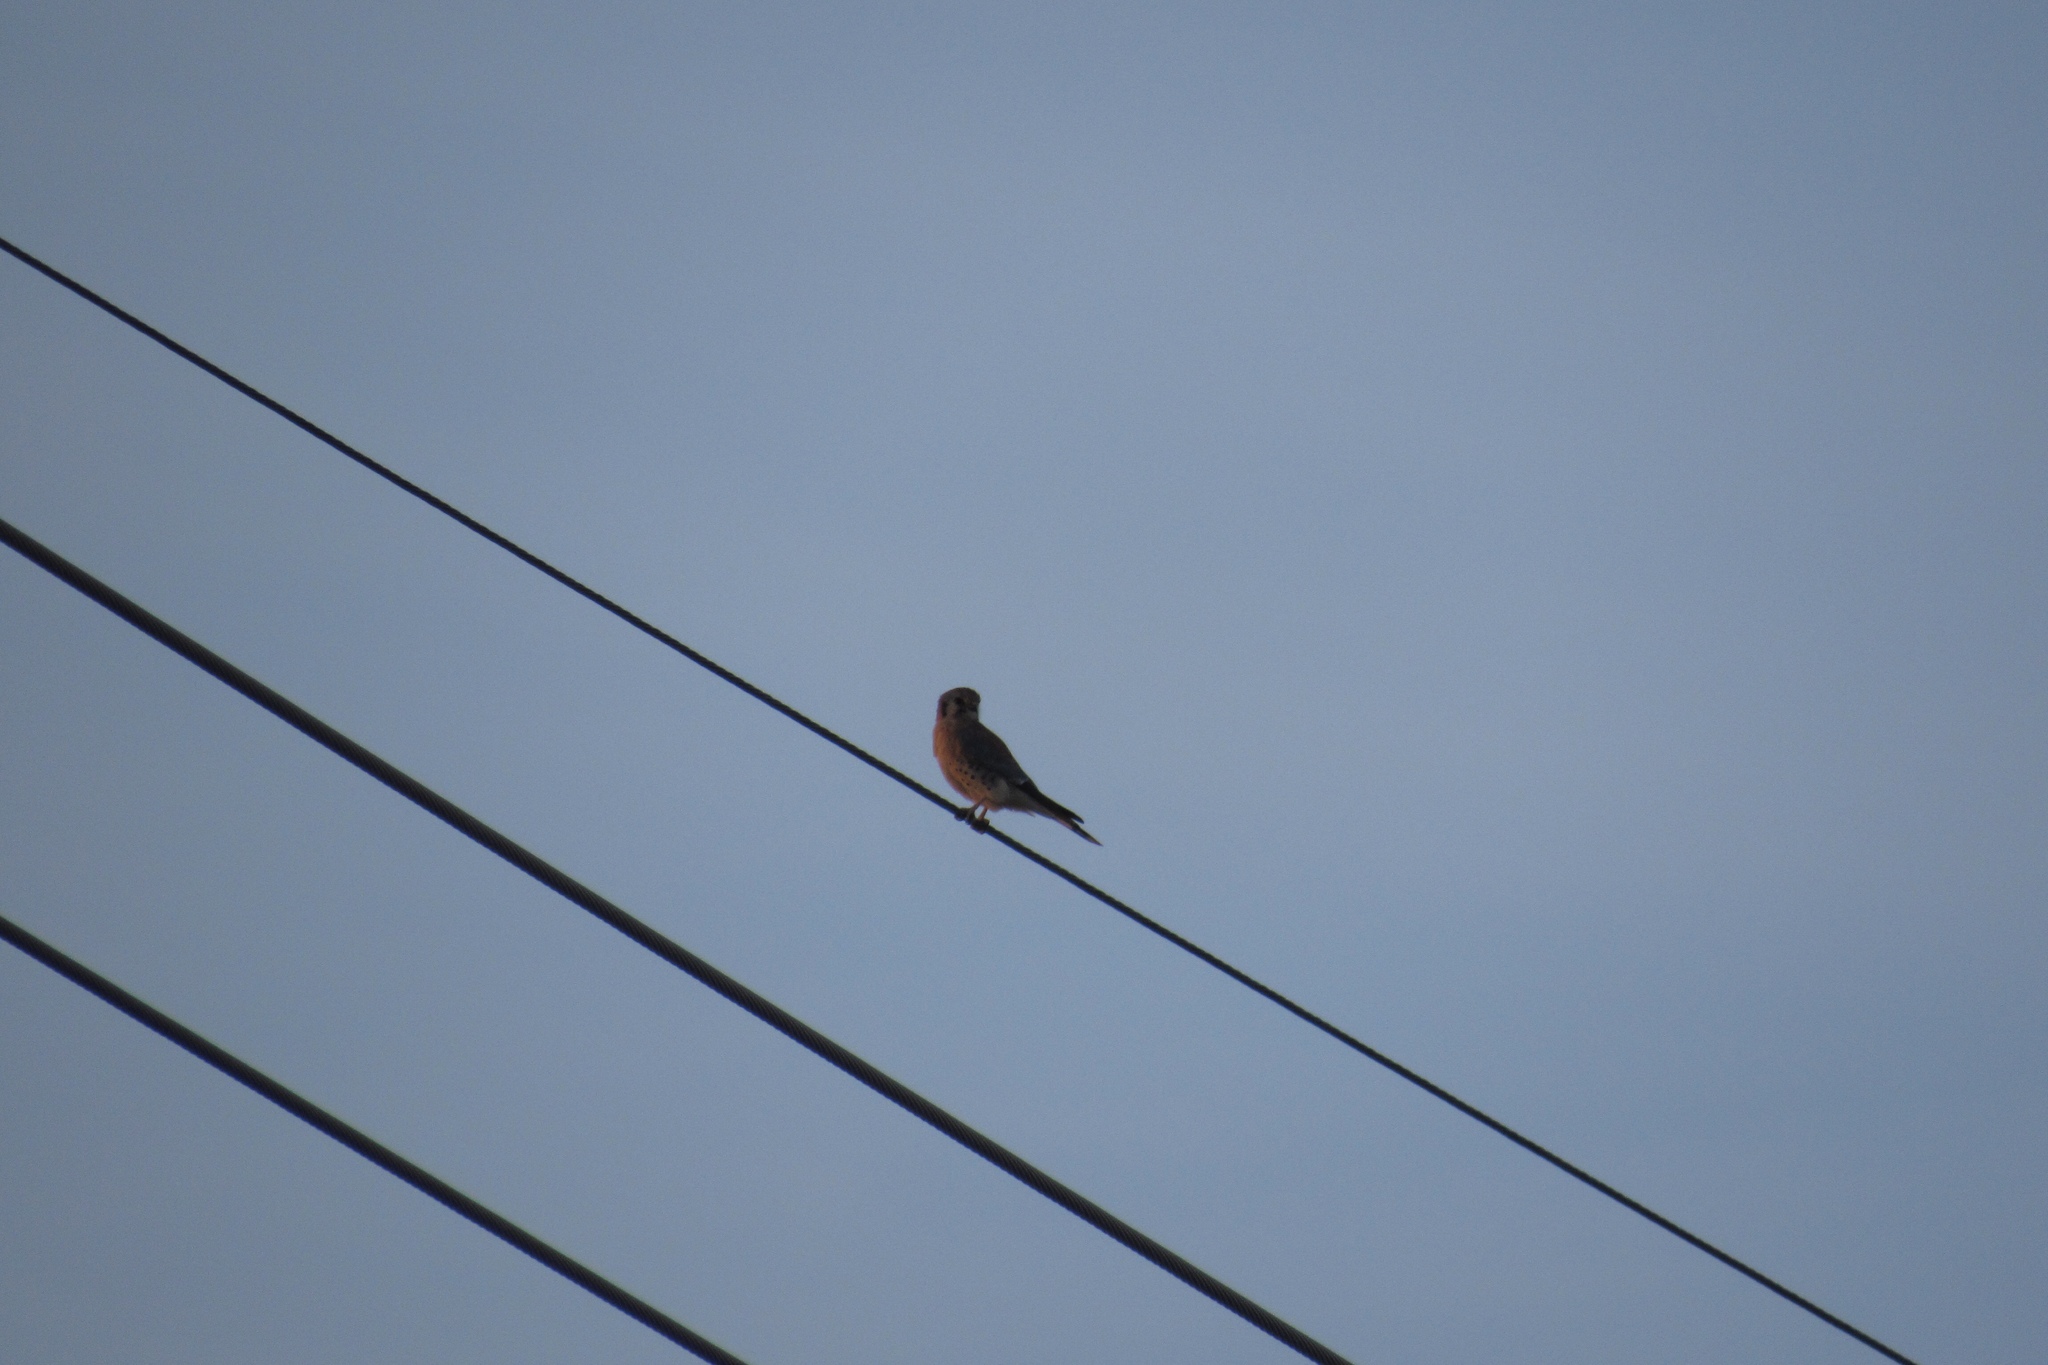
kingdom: Animalia
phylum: Chordata
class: Aves
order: Falconiformes
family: Falconidae
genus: Falco
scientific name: Falco sparverius
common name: American kestrel
